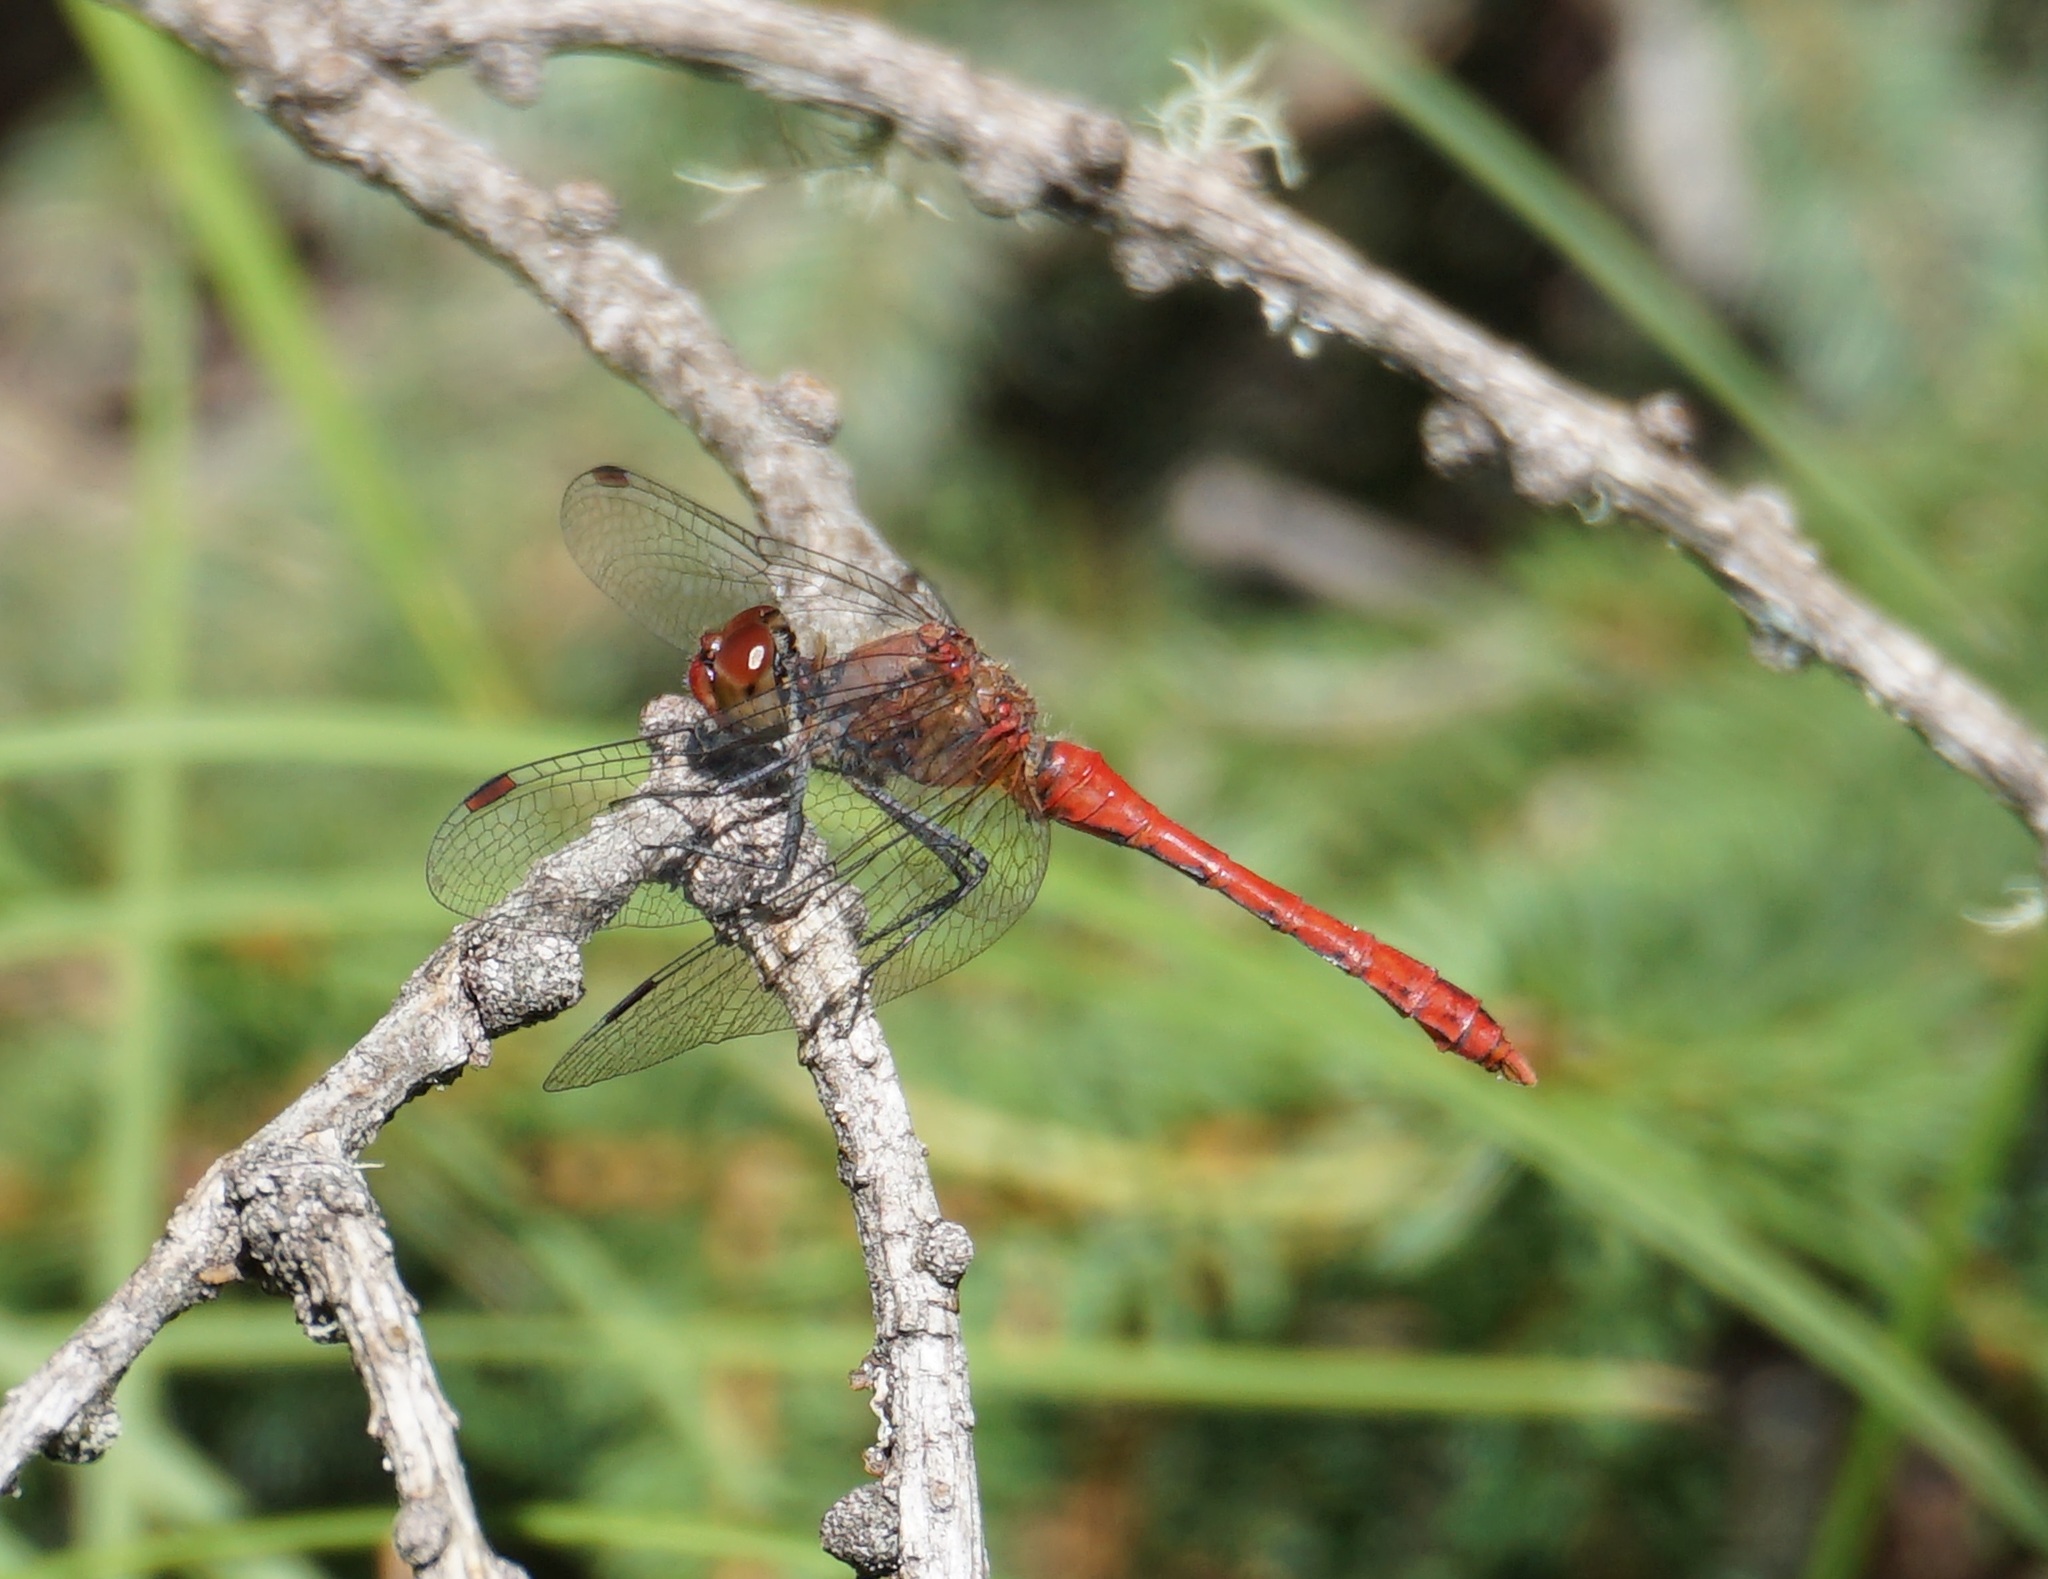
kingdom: Animalia
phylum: Arthropoda
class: Insecta
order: Odonata
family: Libellulidae
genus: Sympetrum
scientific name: Sympetrum sanguineum
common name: Ruddy darter
